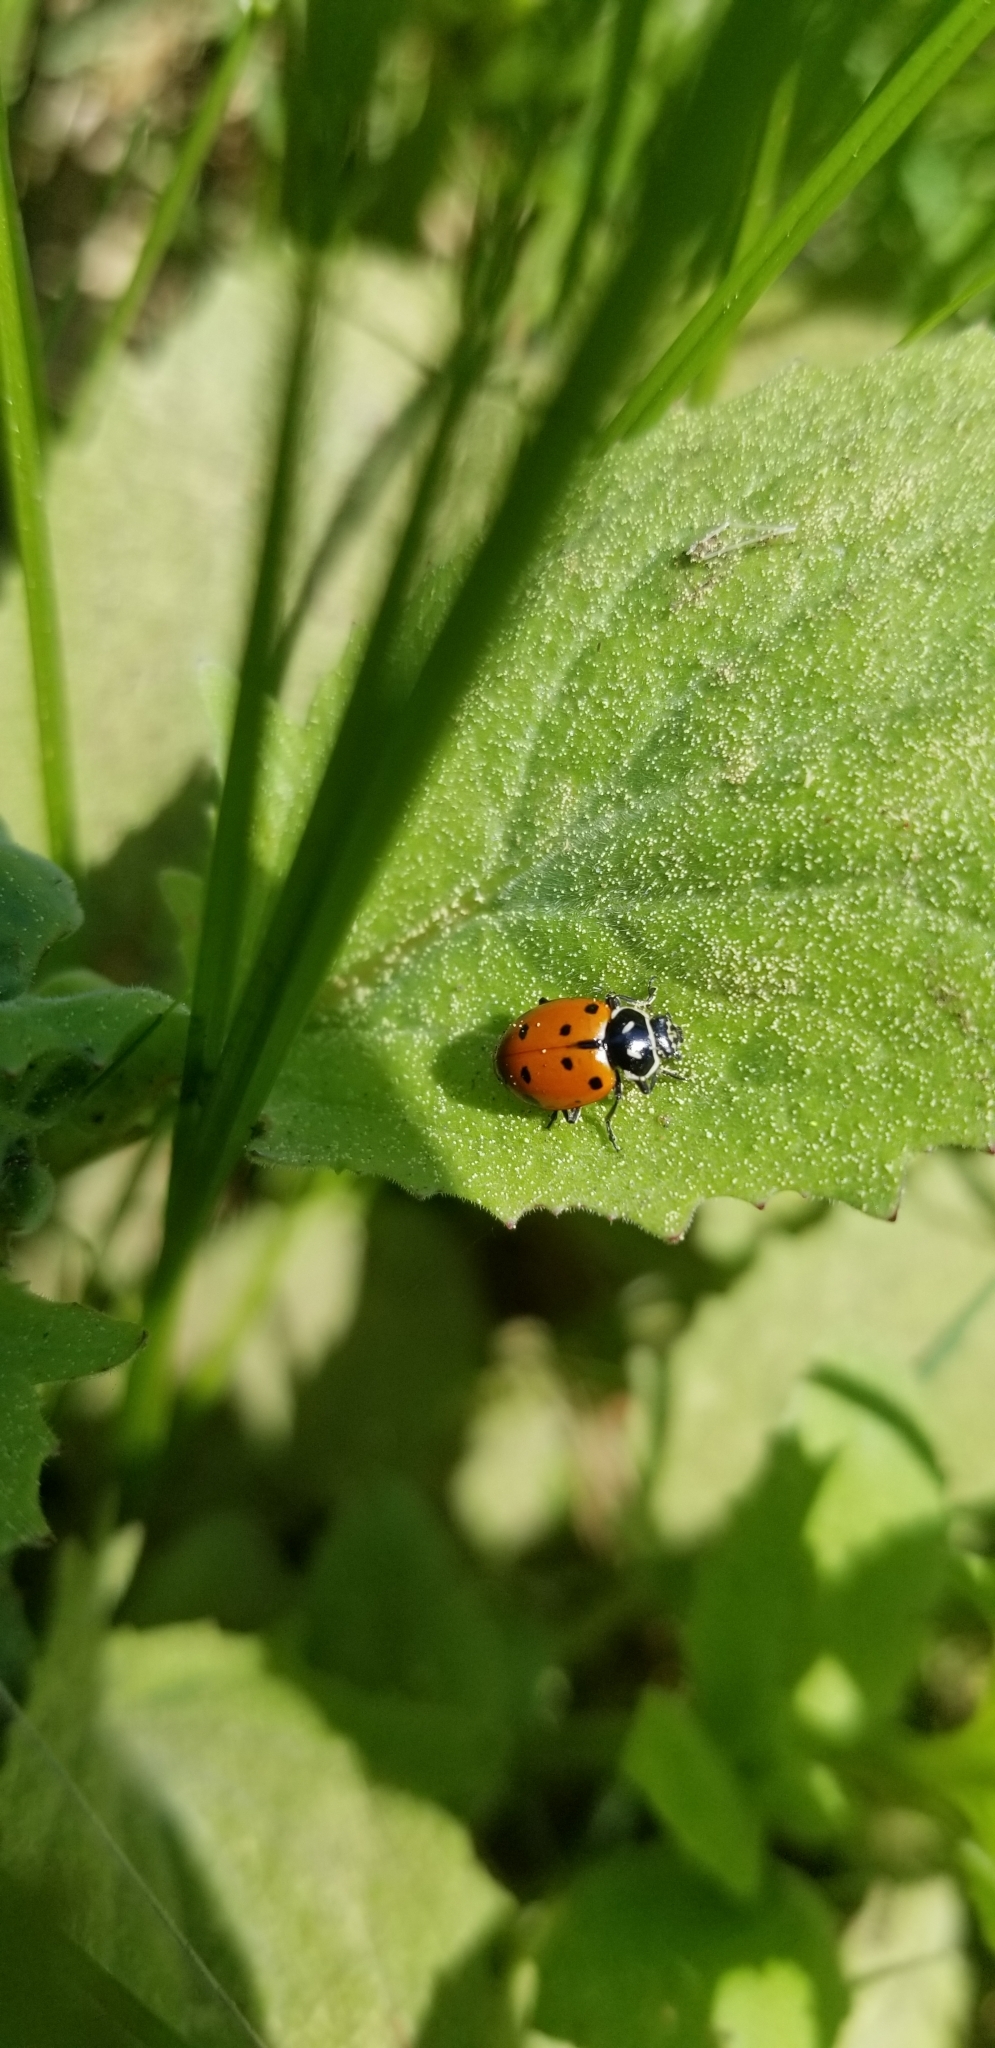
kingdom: Animalia
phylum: Arthropoda
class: Insecta
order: Coleoptera
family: Coccinellidae
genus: Hippodamia
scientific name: Hippodamia convergens
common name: Convergent lady beetle
